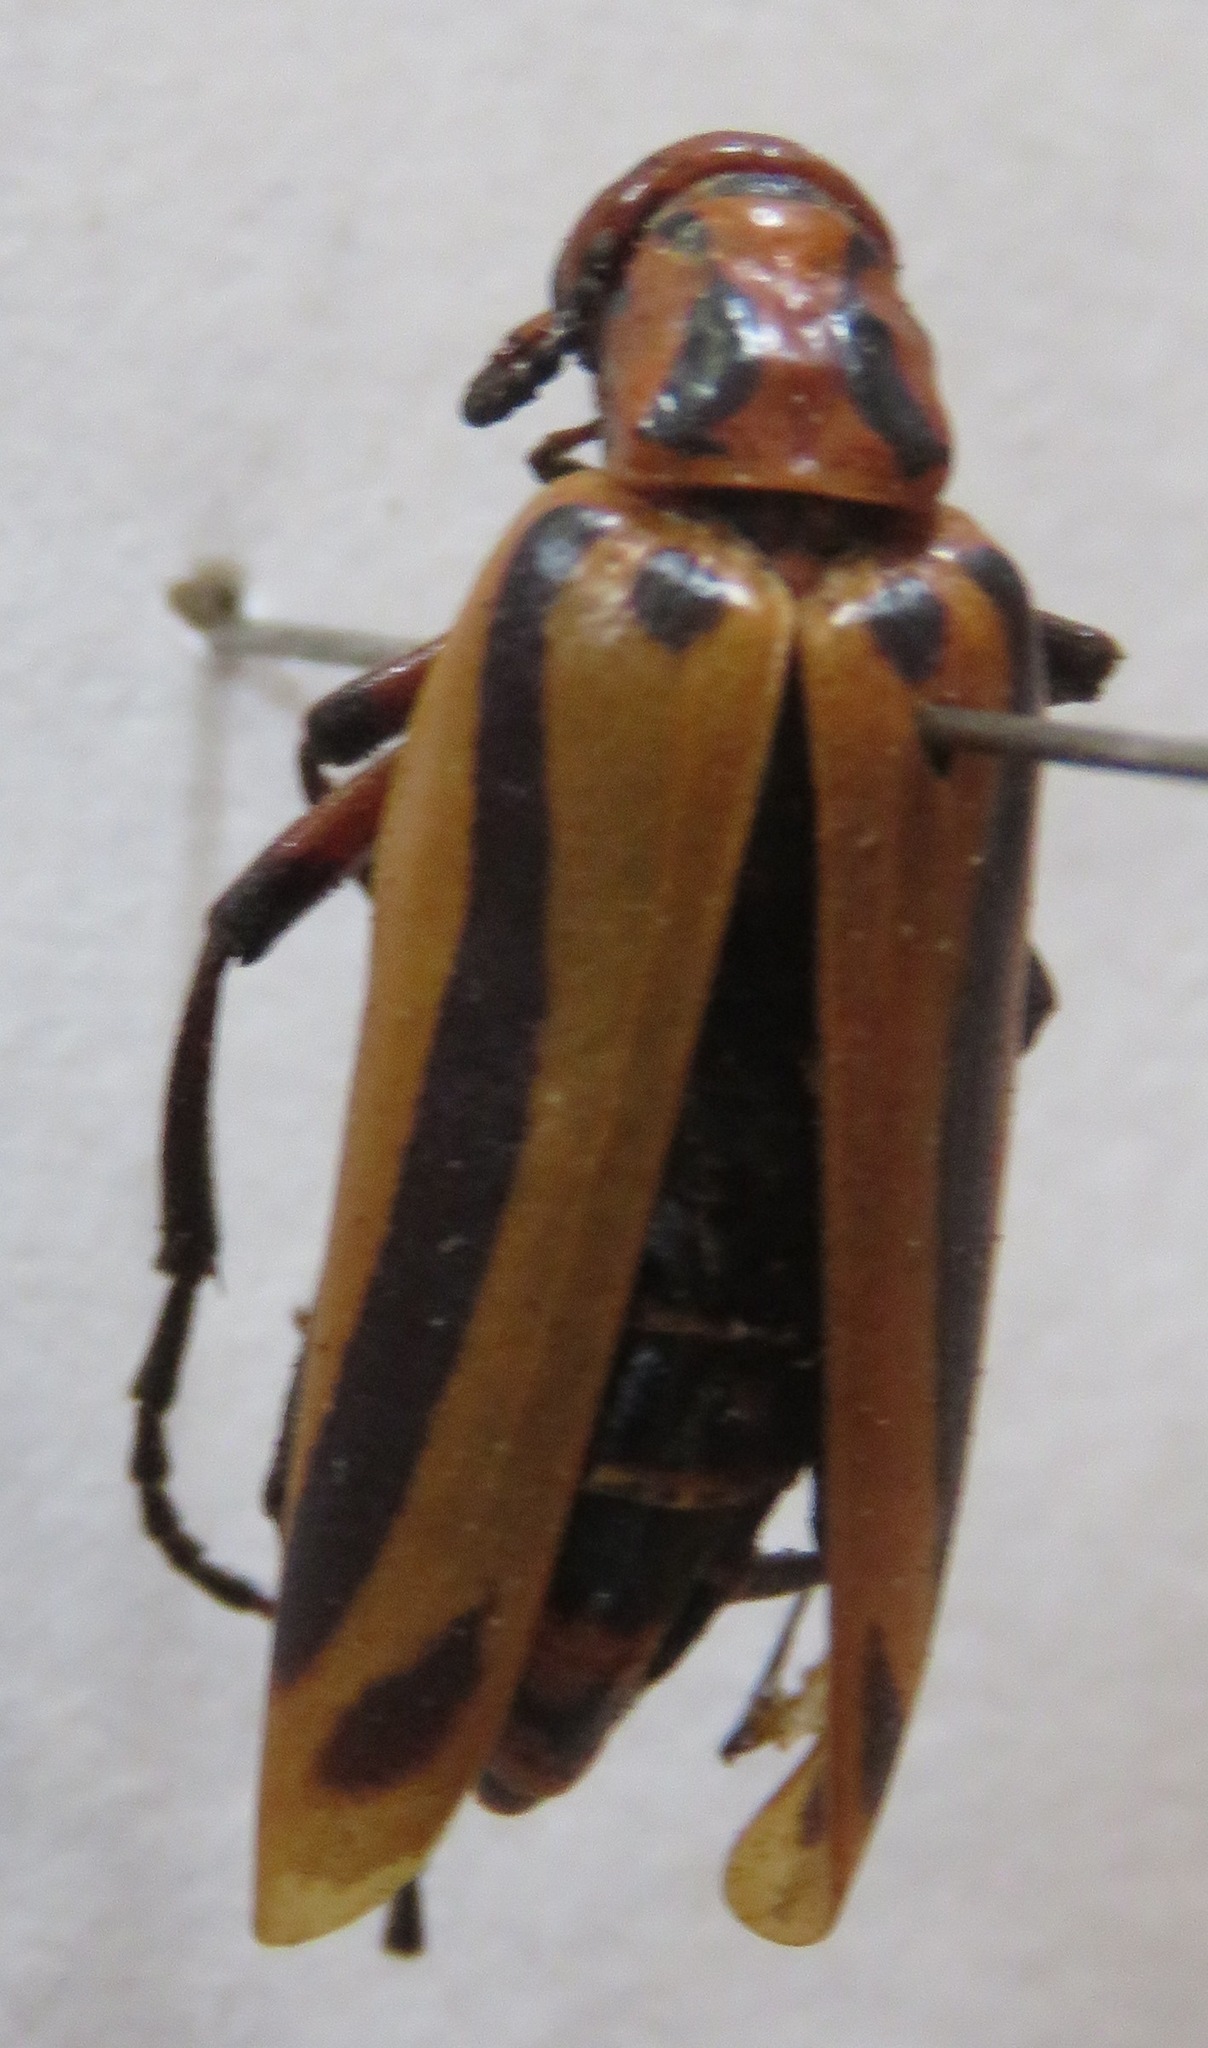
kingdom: Animalia
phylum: Arthropoda
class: Insecta
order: Coleoptera
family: Meloidae
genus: Pyrota
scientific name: Pyrota
